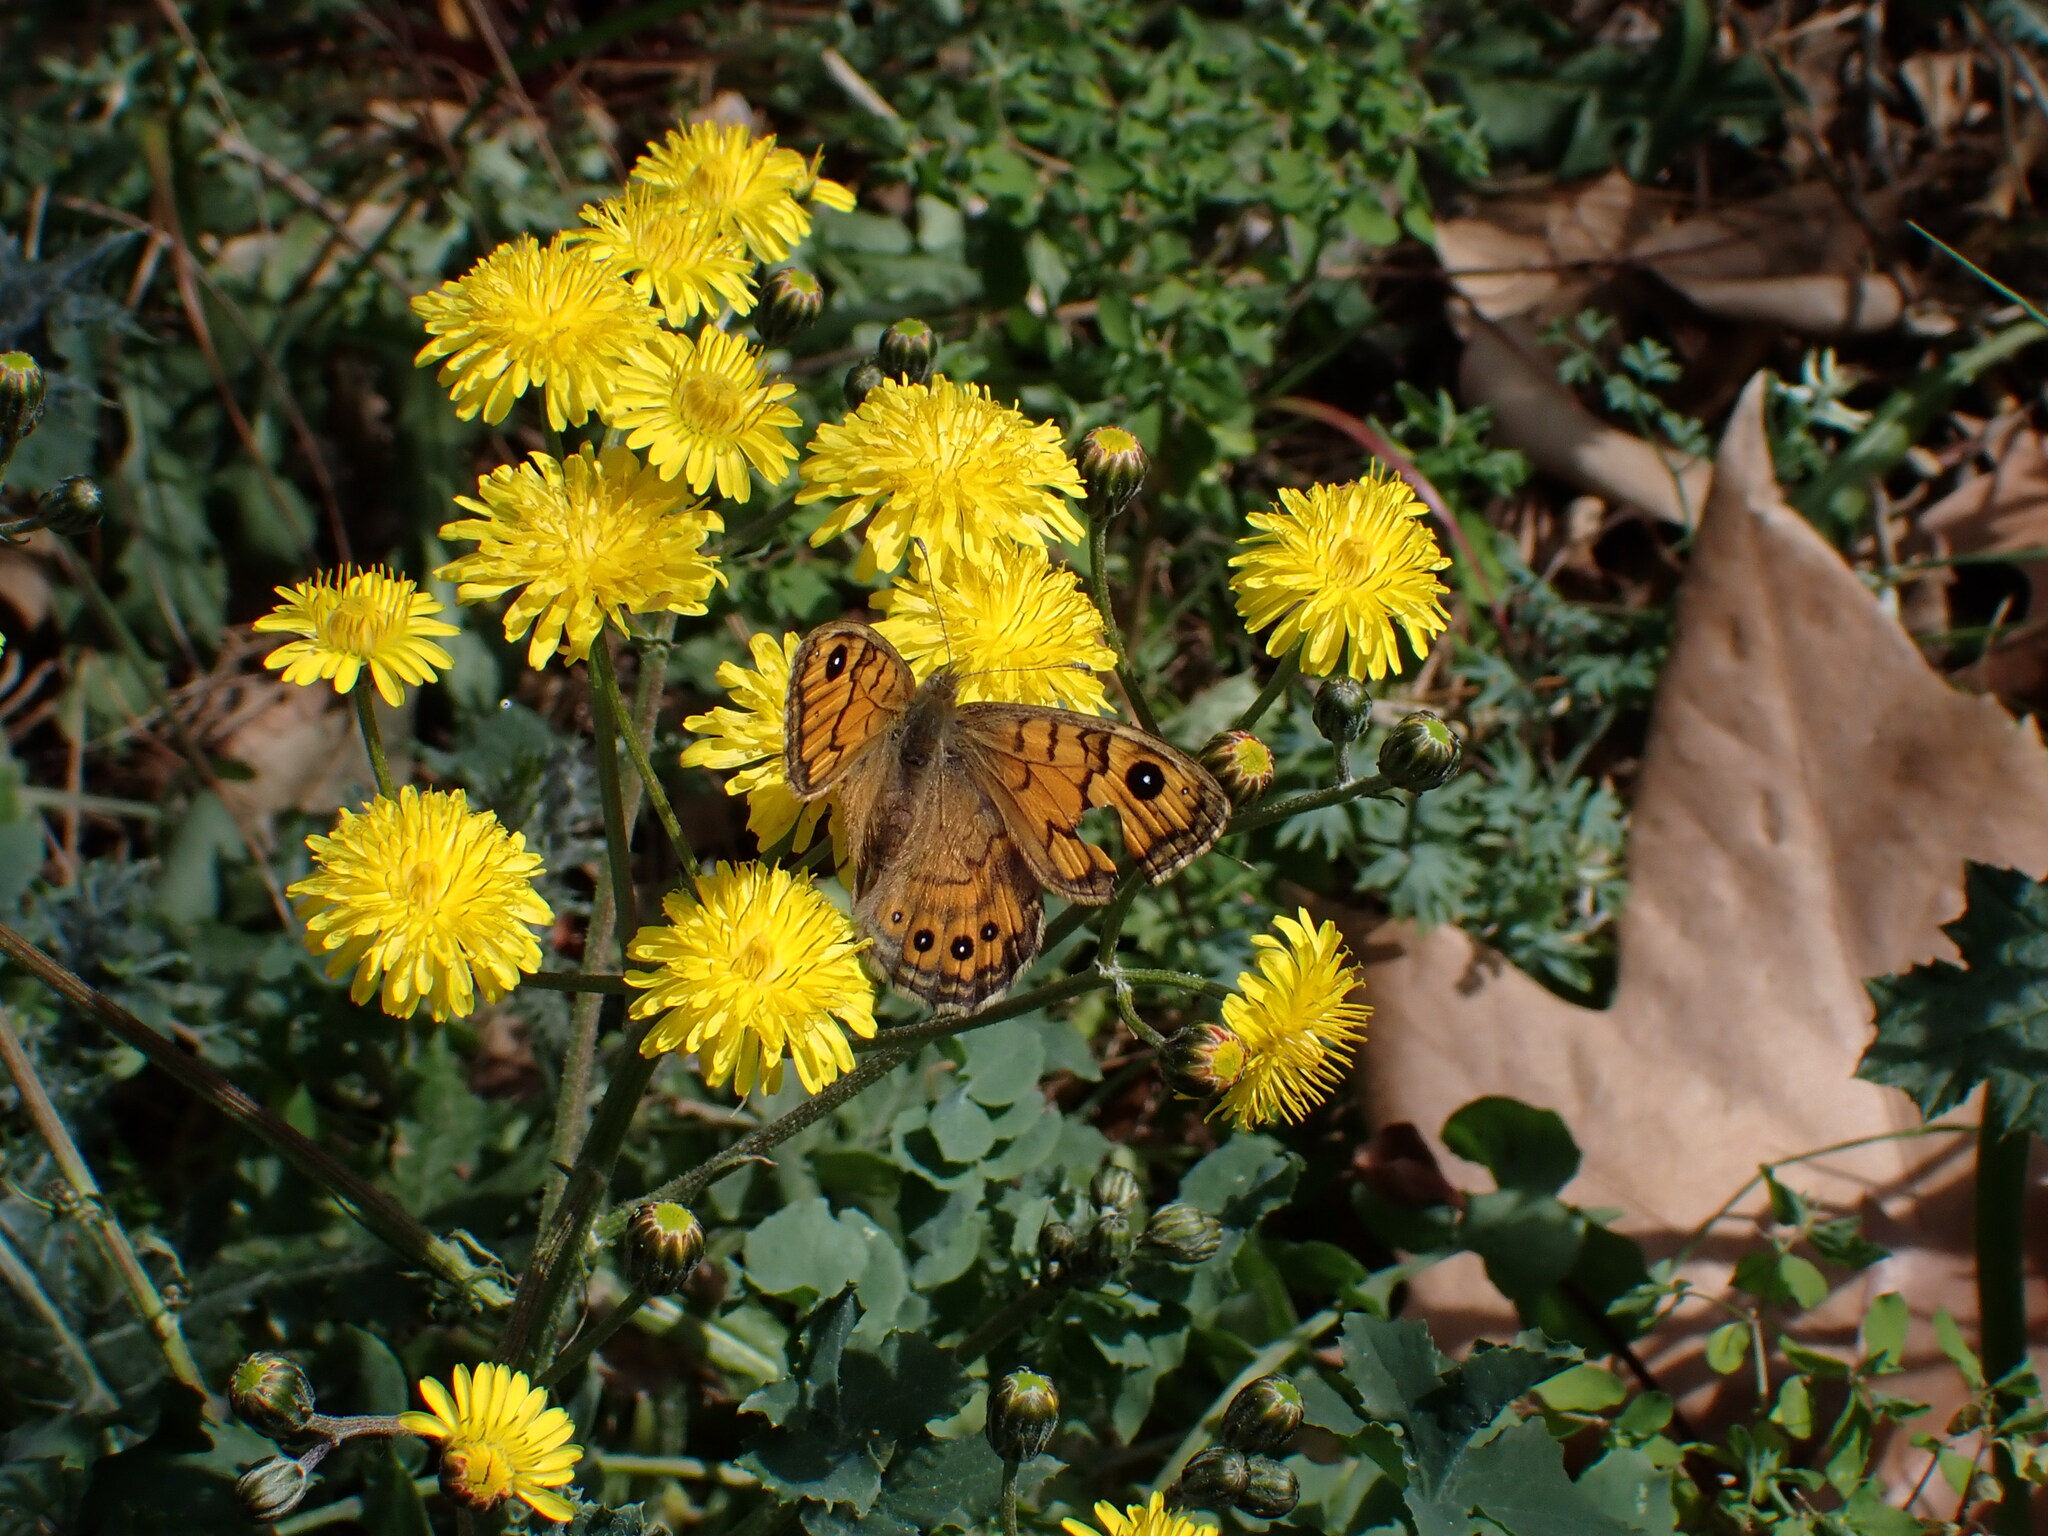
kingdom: Animalia
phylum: Arthropoda
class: Insecta
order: Lepidoptera
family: Nymphalidae
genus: Pararge
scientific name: Pararge Lasiommata megera
